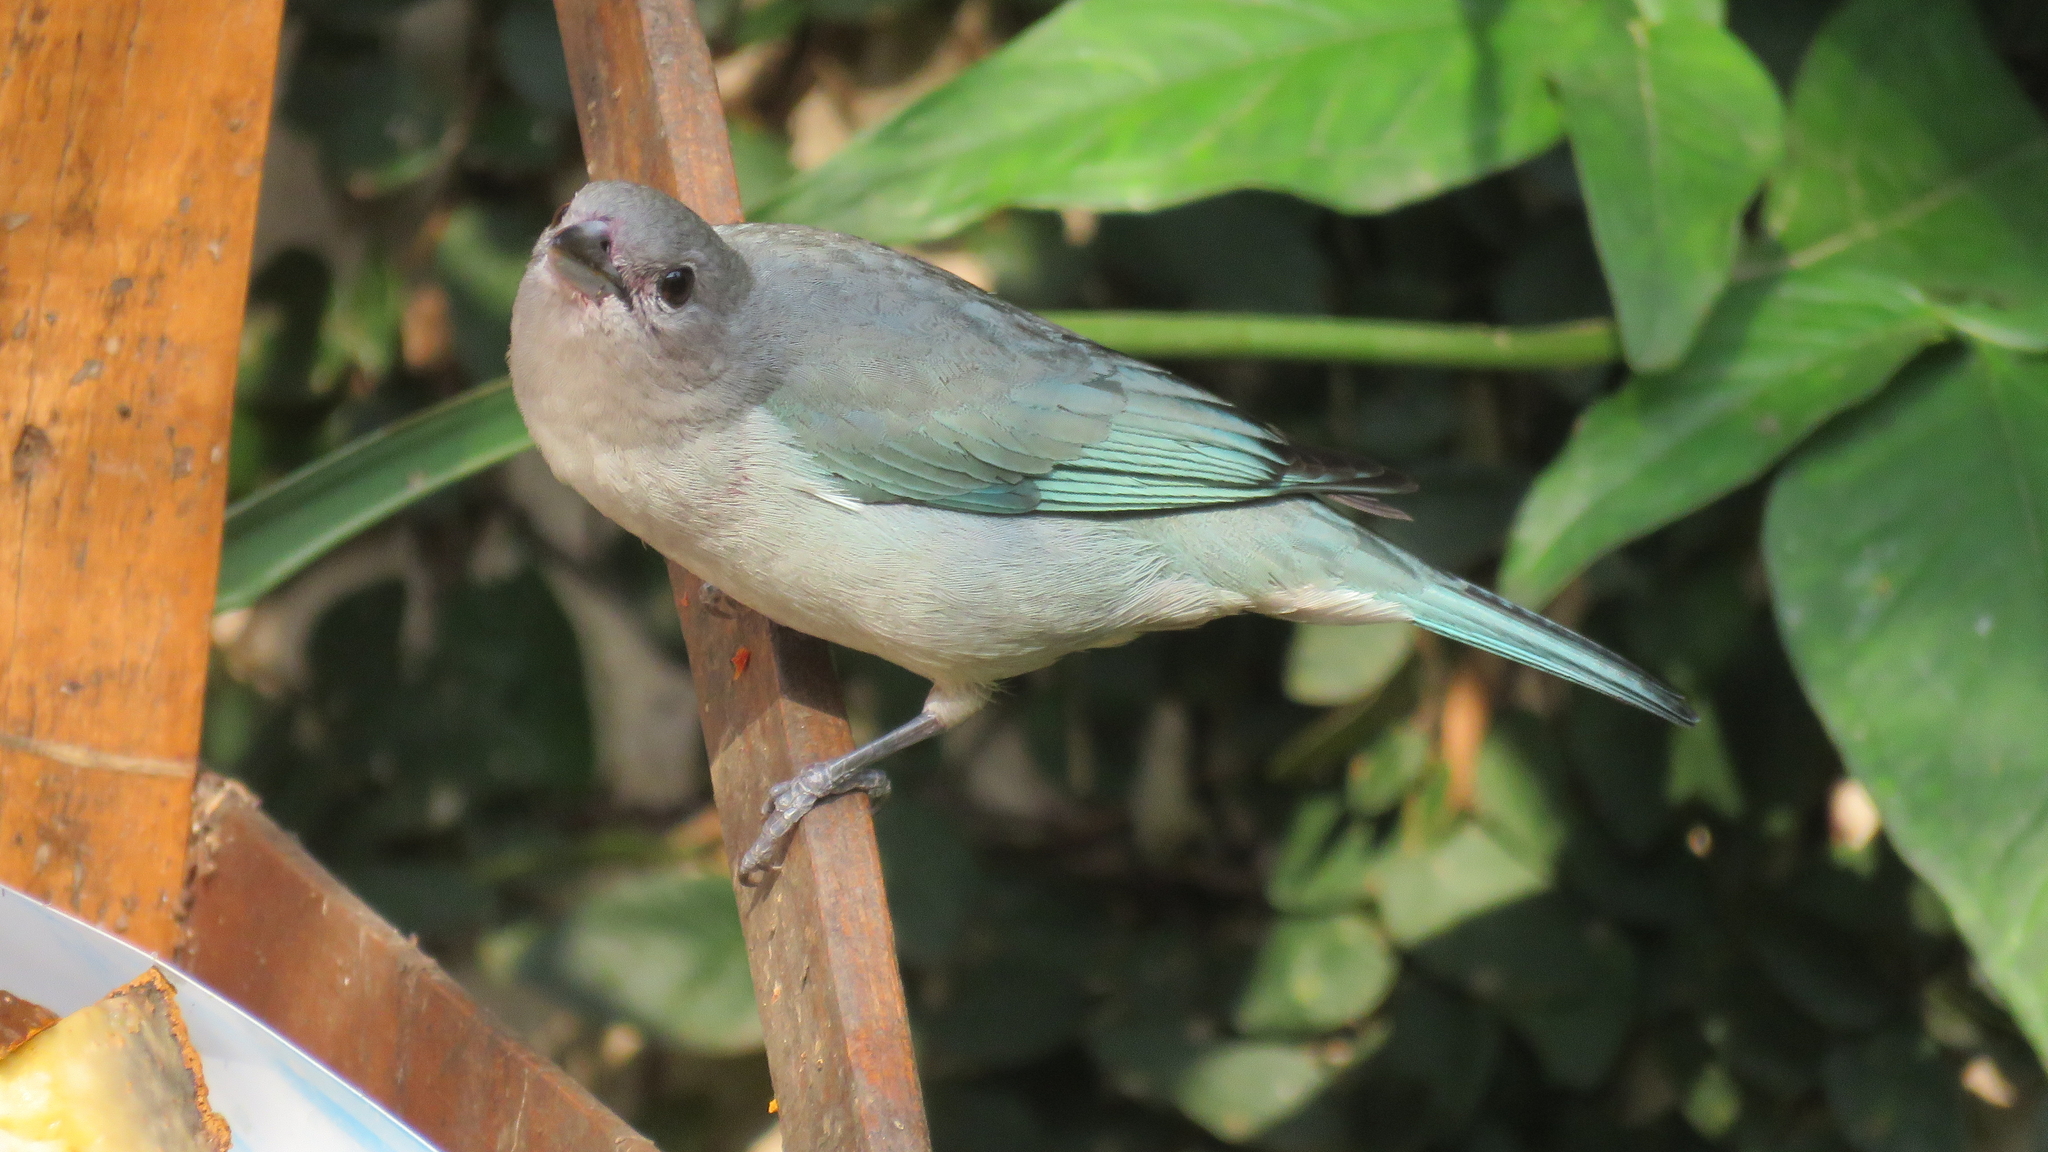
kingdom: Animalia
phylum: Chordata
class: Aves
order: Passeriformes
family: Thraupidae
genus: Thraupis
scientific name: Thraupis sayaca
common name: Sayaca tanager
